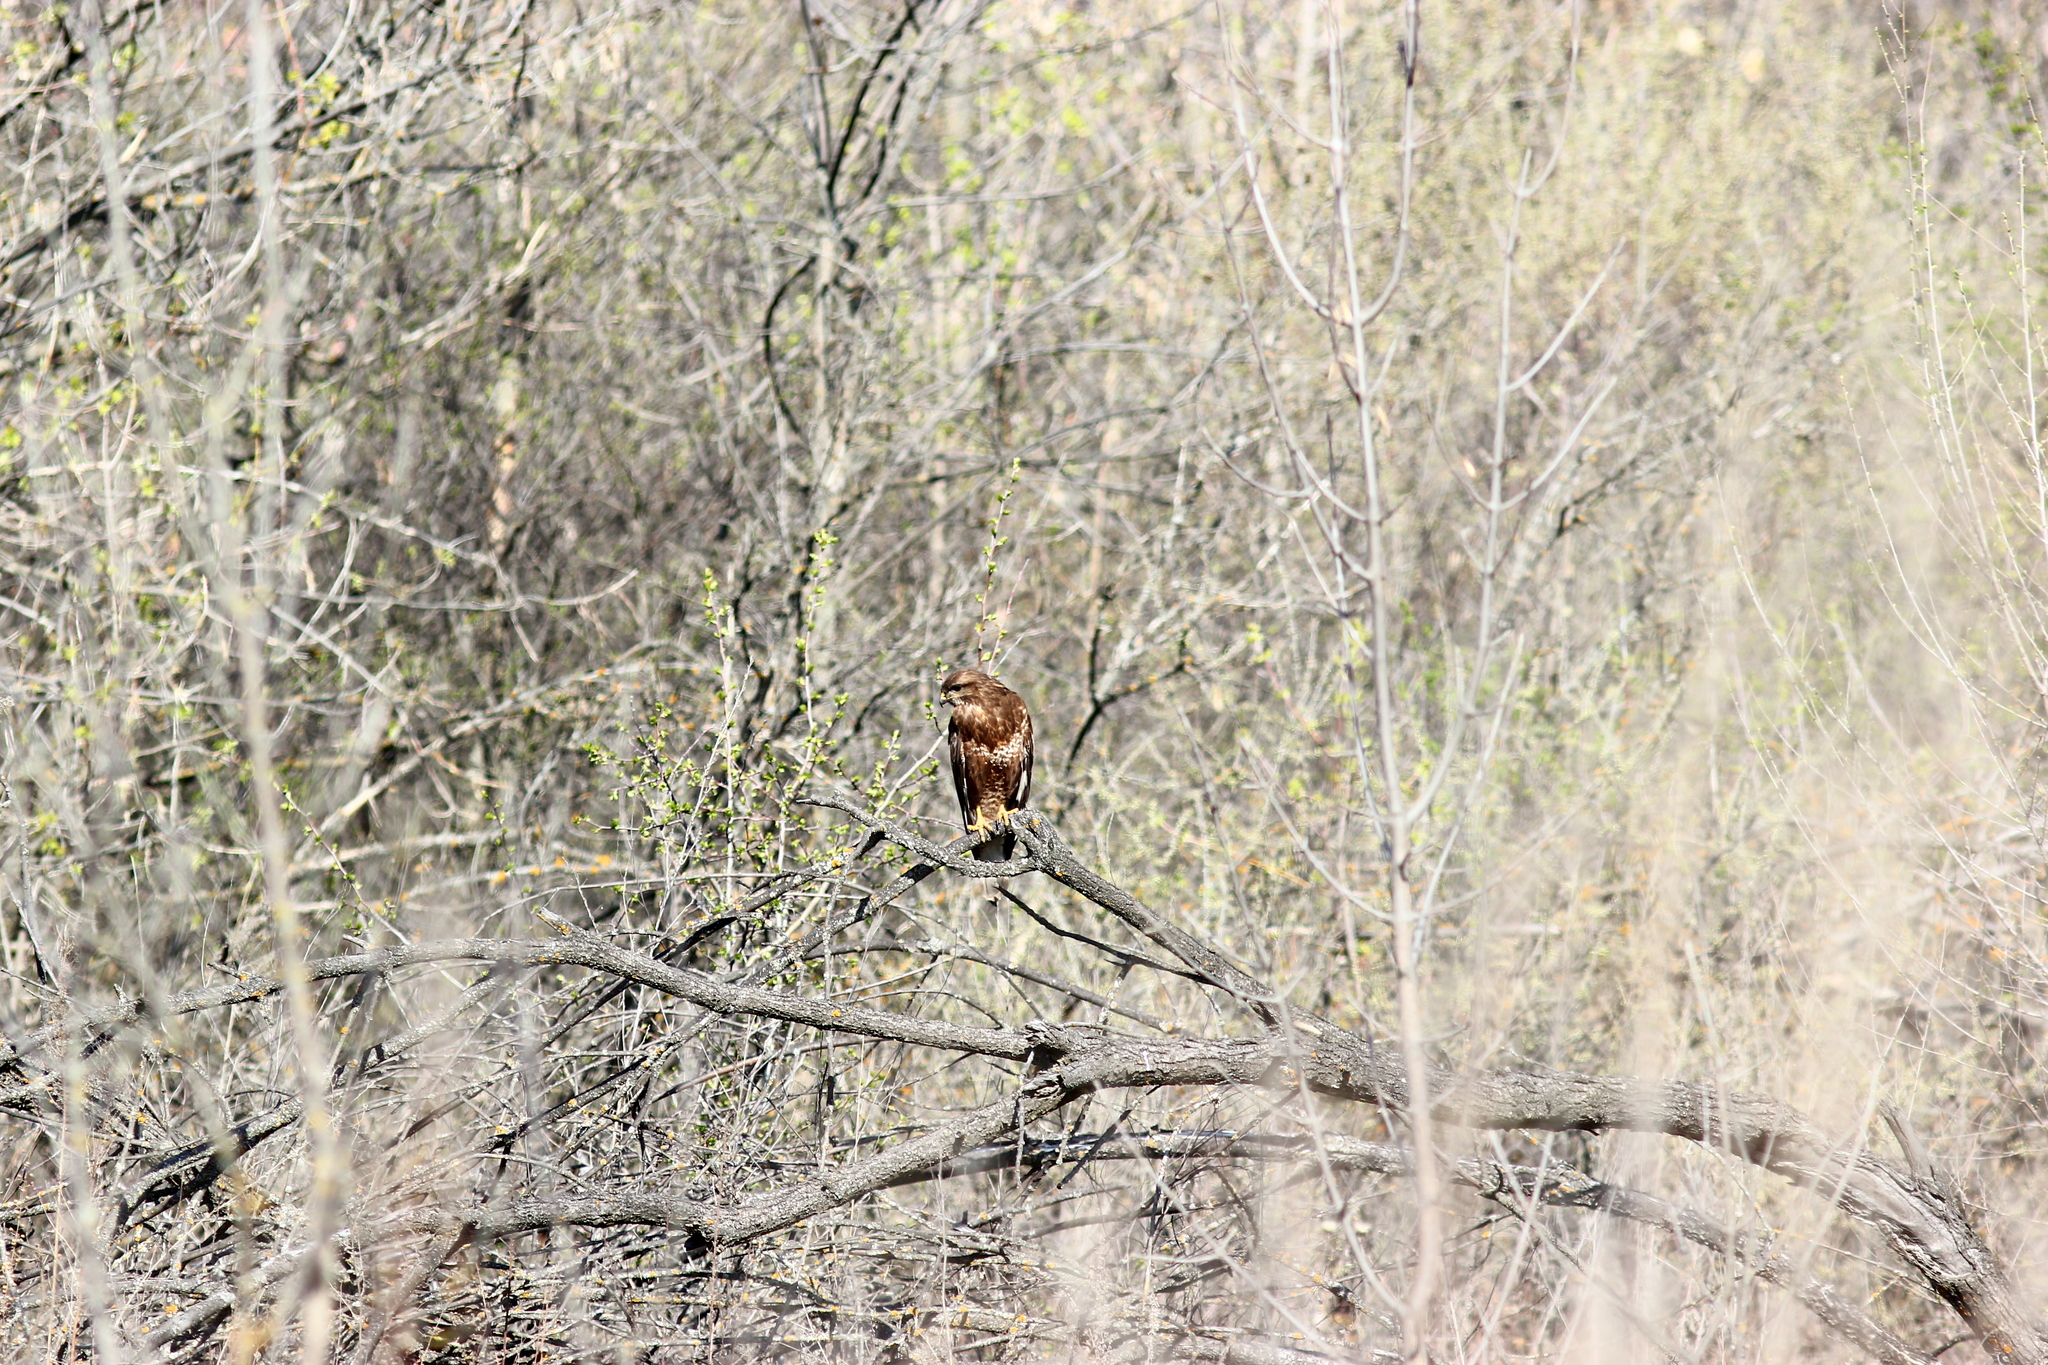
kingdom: Animalia
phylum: Chordata
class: Aves
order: Accipitriformes
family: Accipitridae
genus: Buteo
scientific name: Buteo buteo
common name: Common buzzard
